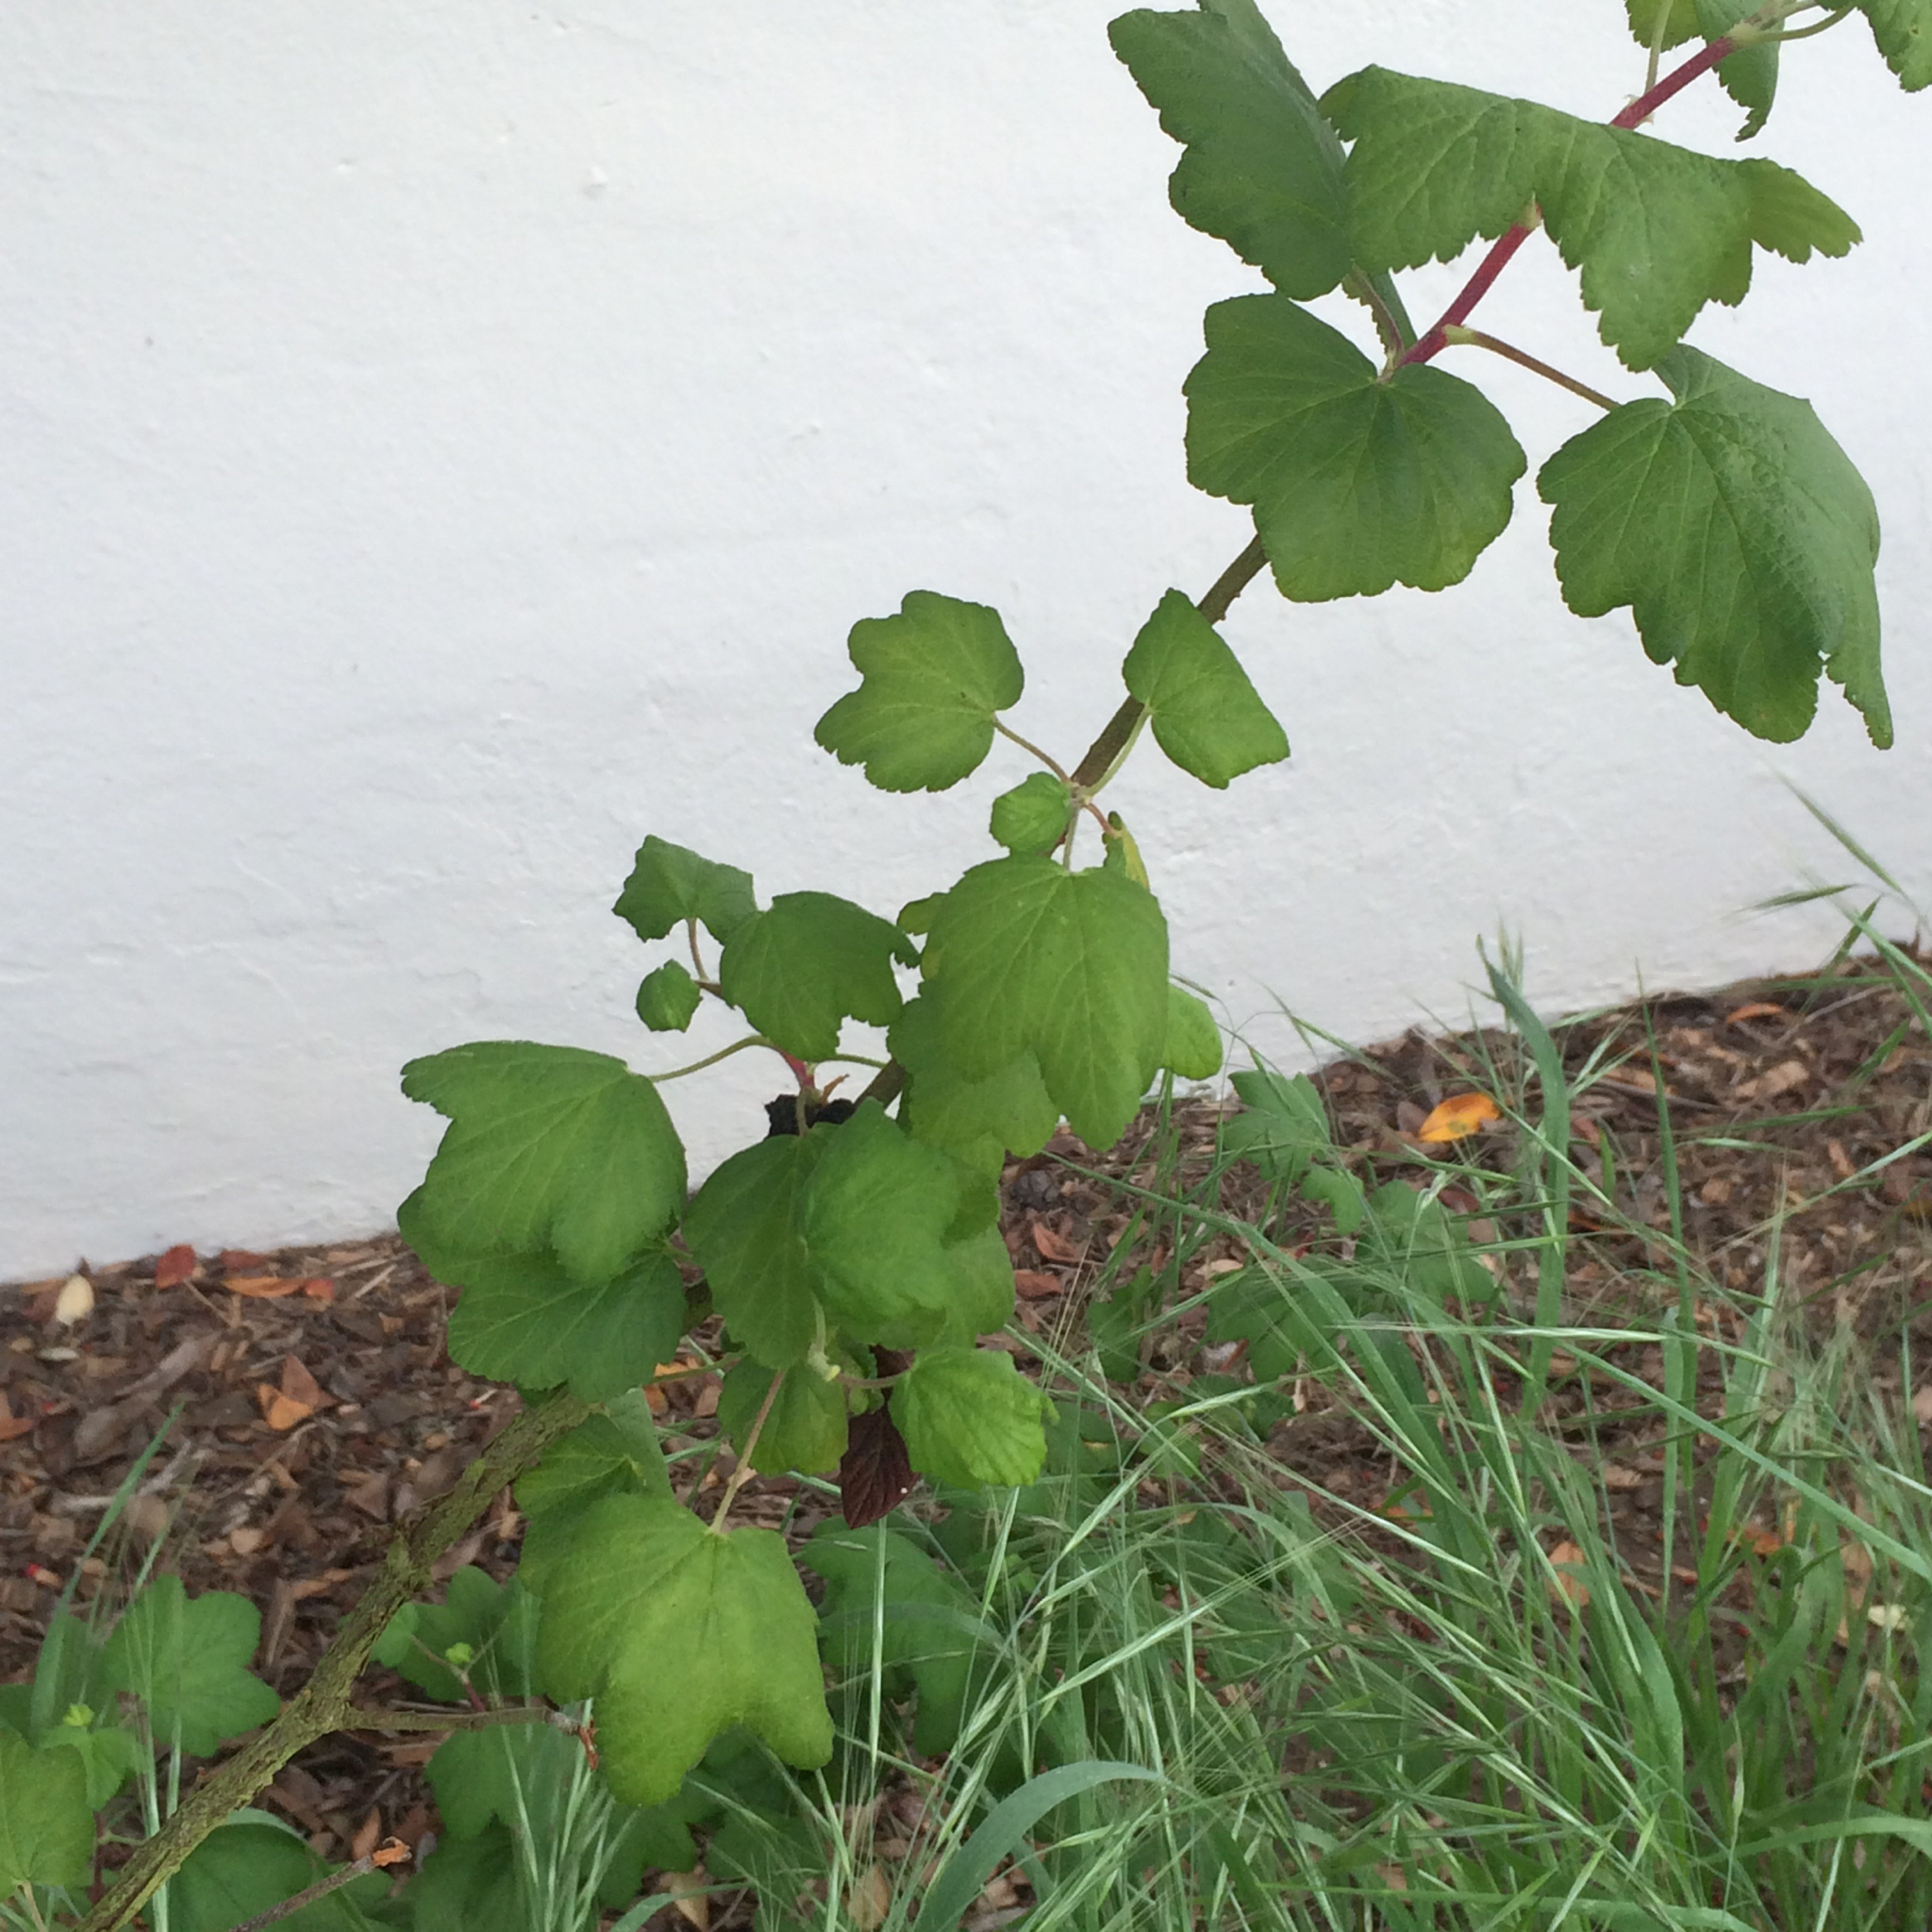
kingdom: Plantae
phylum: Tracheophyta
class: Magnoliopsida
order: Saxifragales
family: Grossulariaceae
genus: Ribes
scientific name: Ribes sanguineum
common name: Flowering currant
